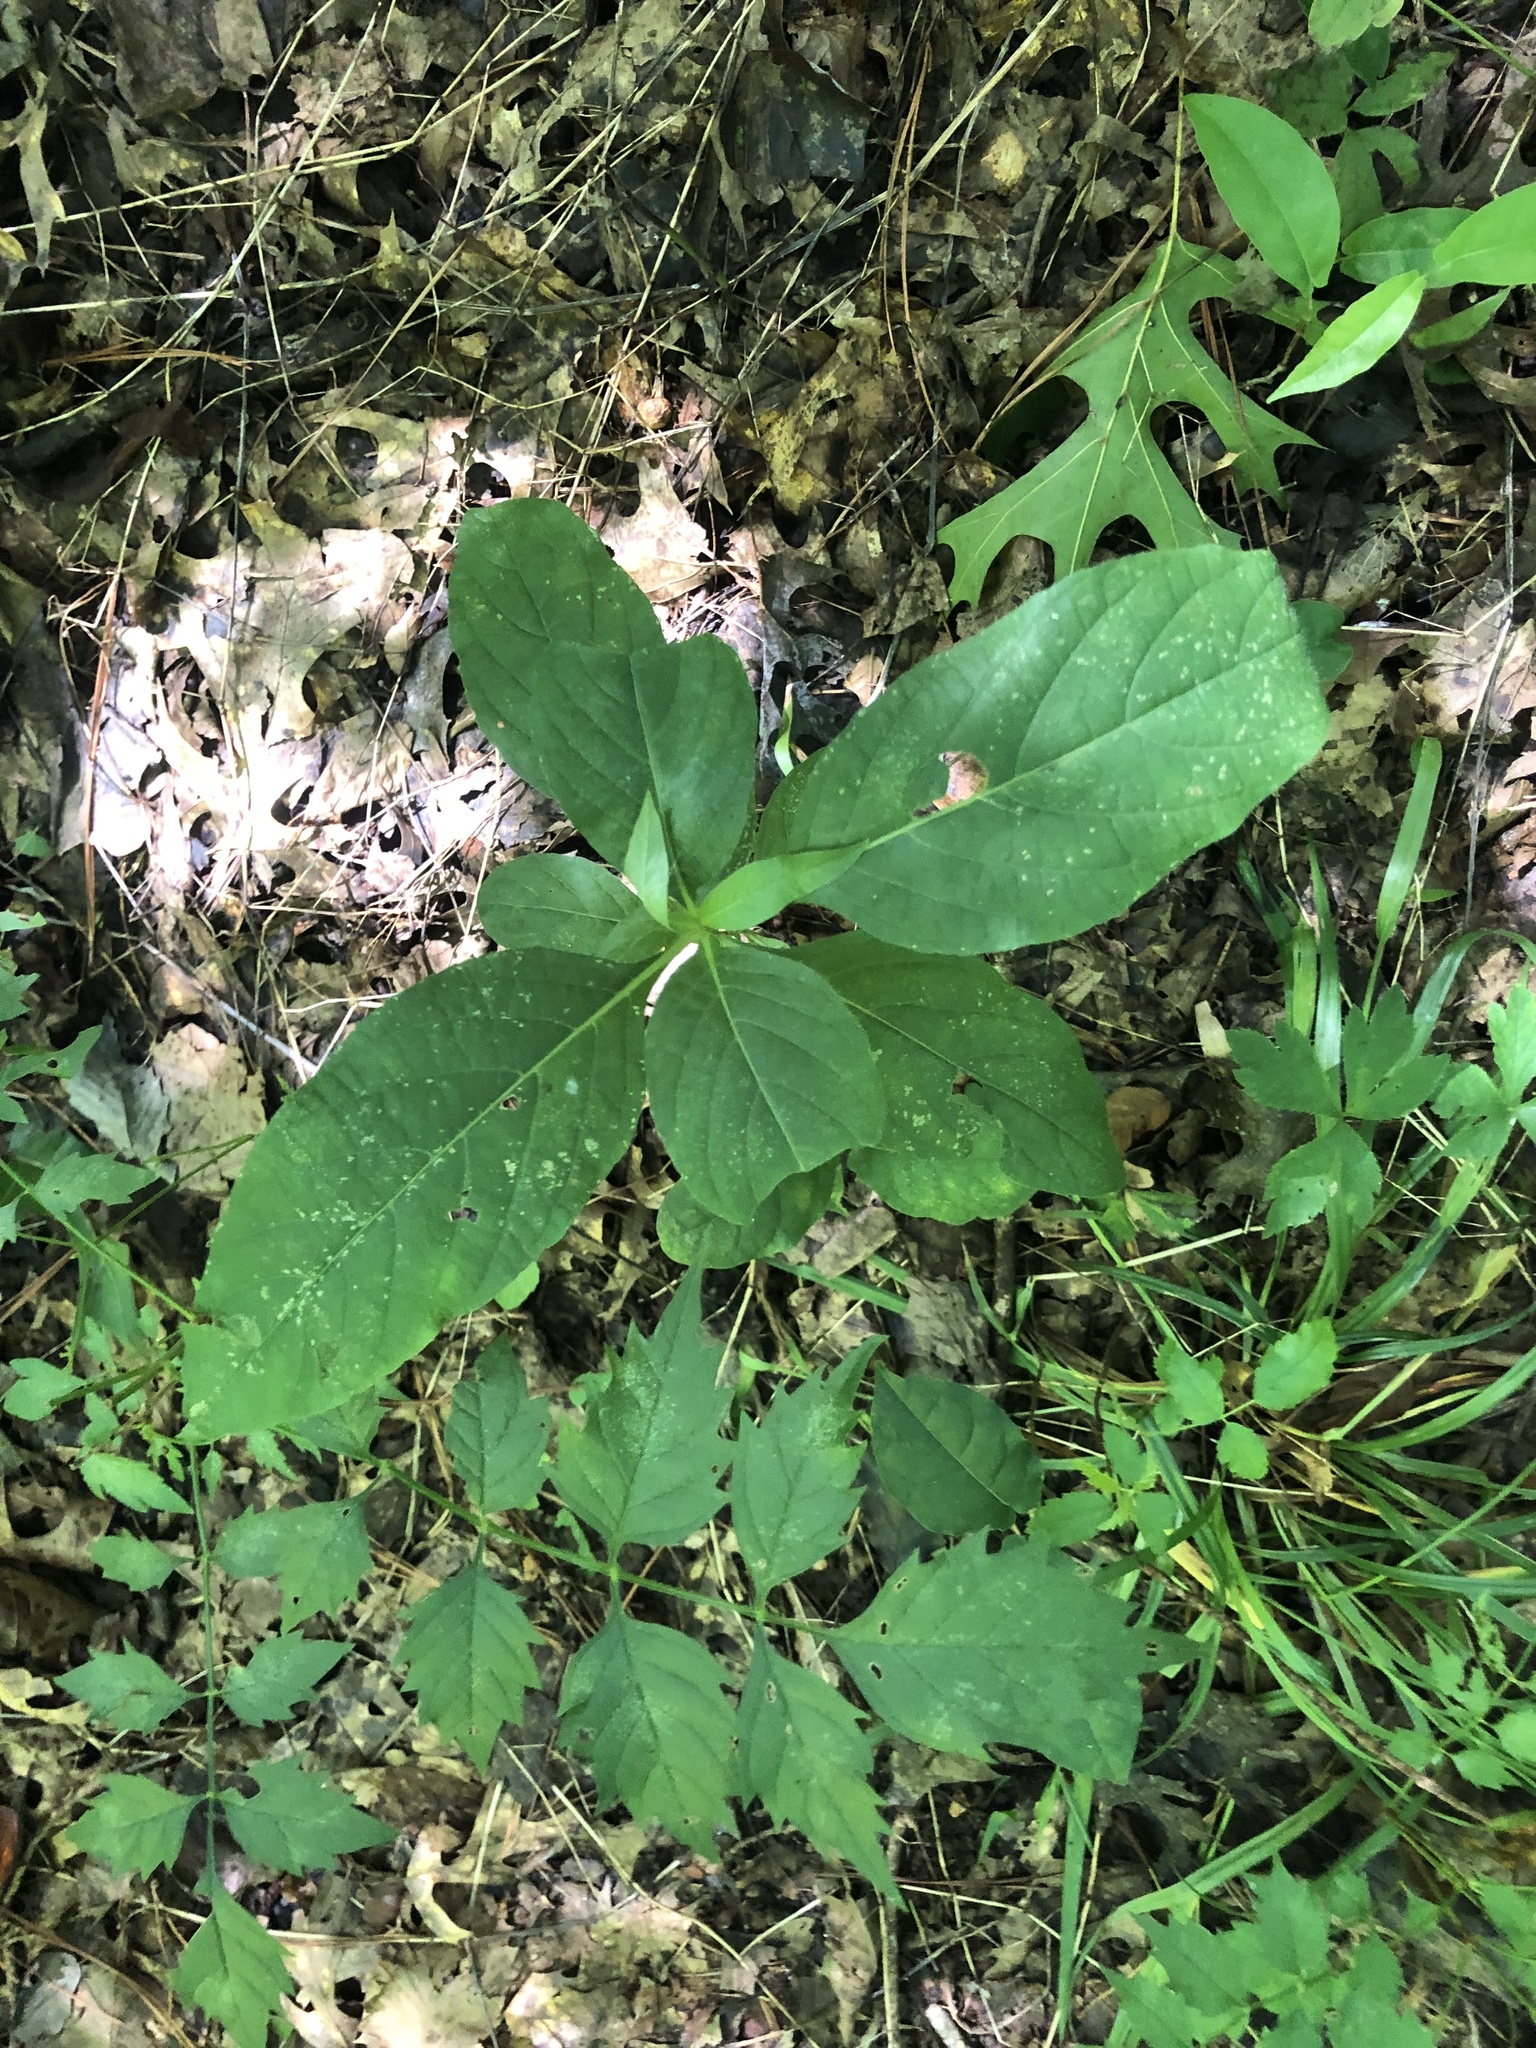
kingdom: Plantae
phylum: Tracheophyta
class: Magnoliopsida
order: Lamiales
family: Acanthaceae
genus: Ruellia
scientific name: Ruellia strepens
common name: Limestone wild petunia
